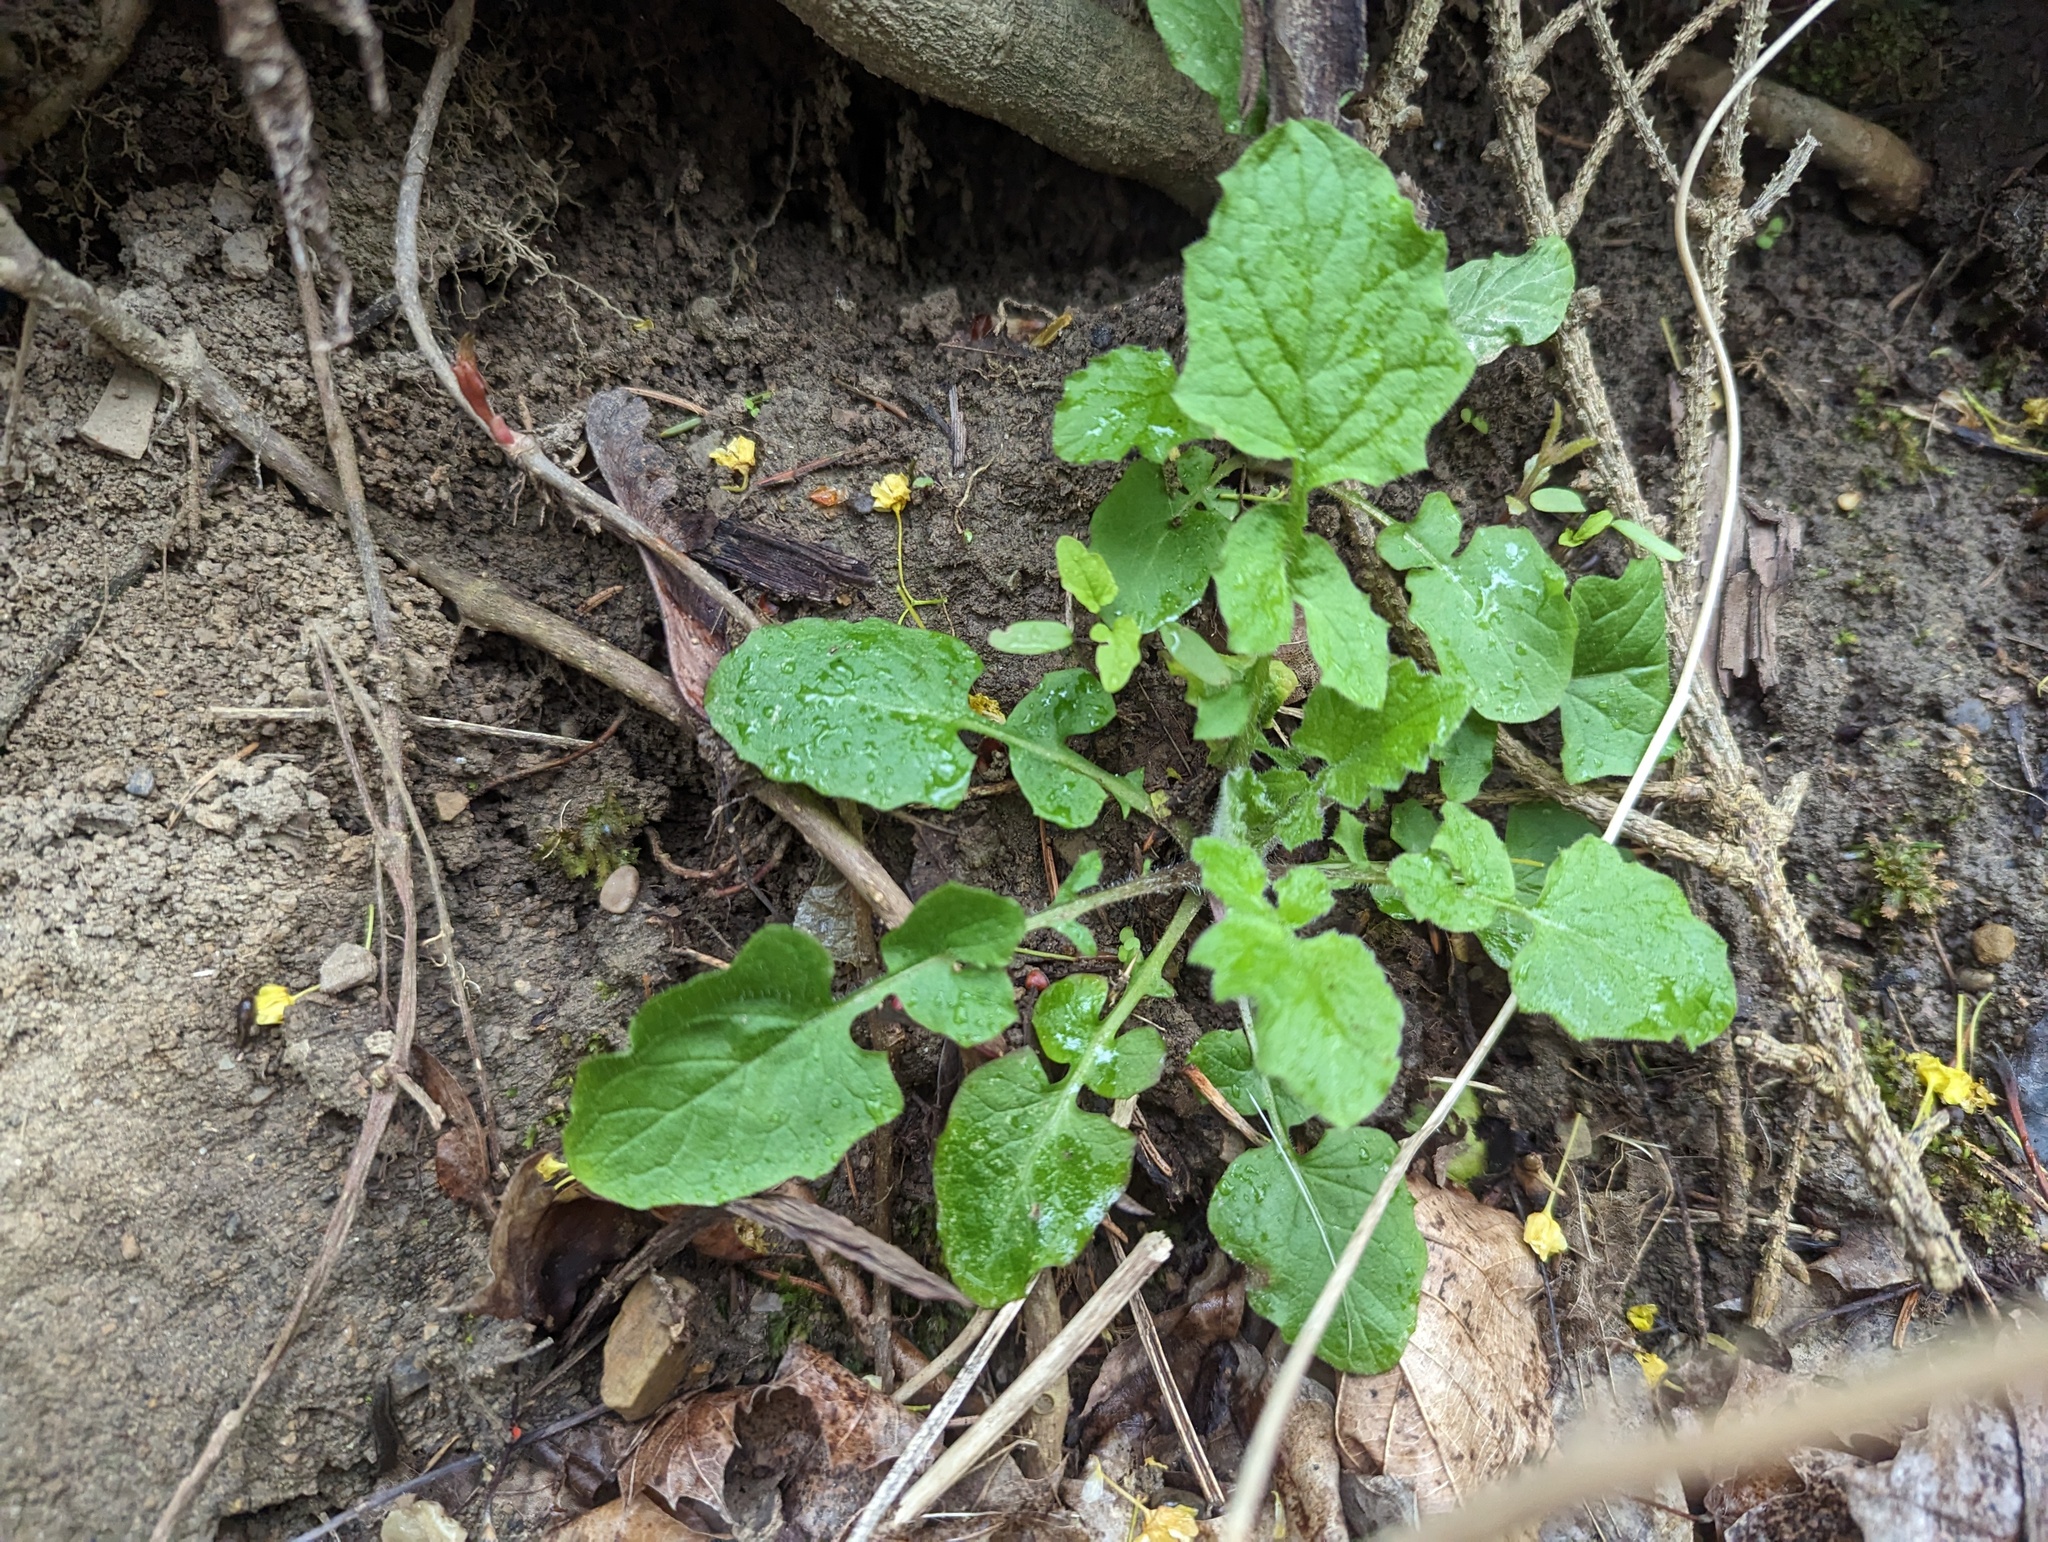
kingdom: Plantae
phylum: Tracheophyta
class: Magnoliopsida
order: Asterales
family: Asteraceae
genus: Lapsana
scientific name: Lapsana communis
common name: Nipplewort
